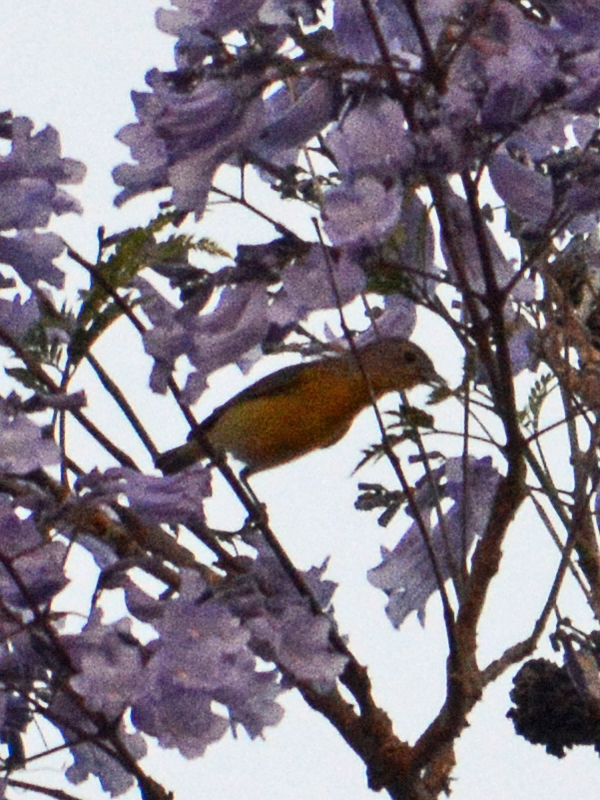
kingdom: Animalia
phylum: Chordata
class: Aves
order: Passeriformes
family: Parulidae
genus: Leiothlypis
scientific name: Leiothlypis ruficapilla
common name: Nashville warbler
